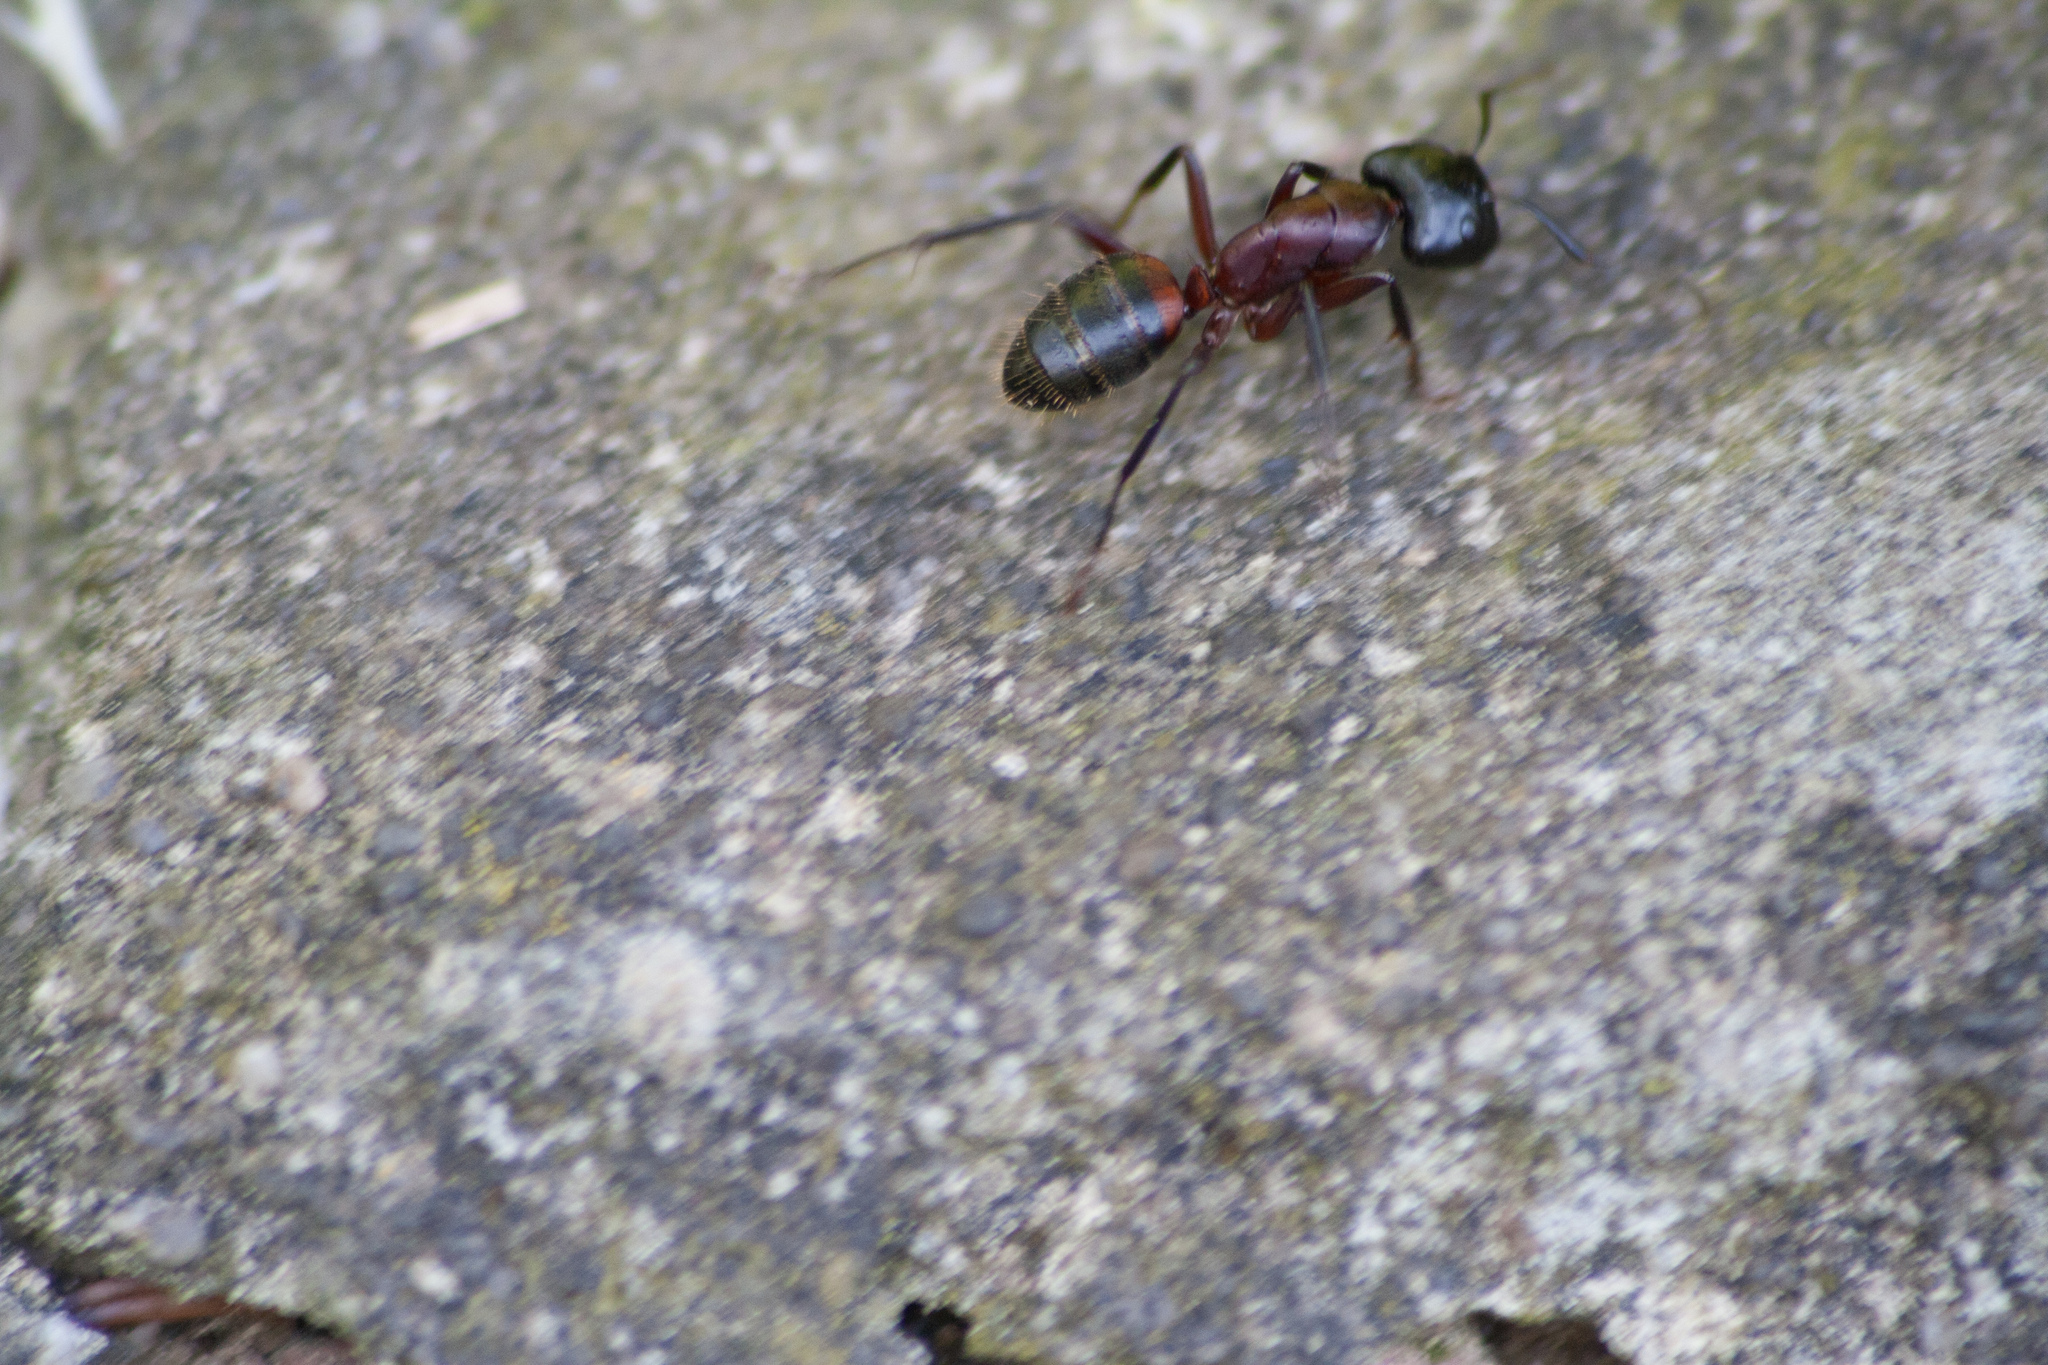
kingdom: Animalia
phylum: Arthropoda
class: Insecta
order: Hymenoptera
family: Formicidae
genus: Camponotus
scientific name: Camponotus ligniperdus
